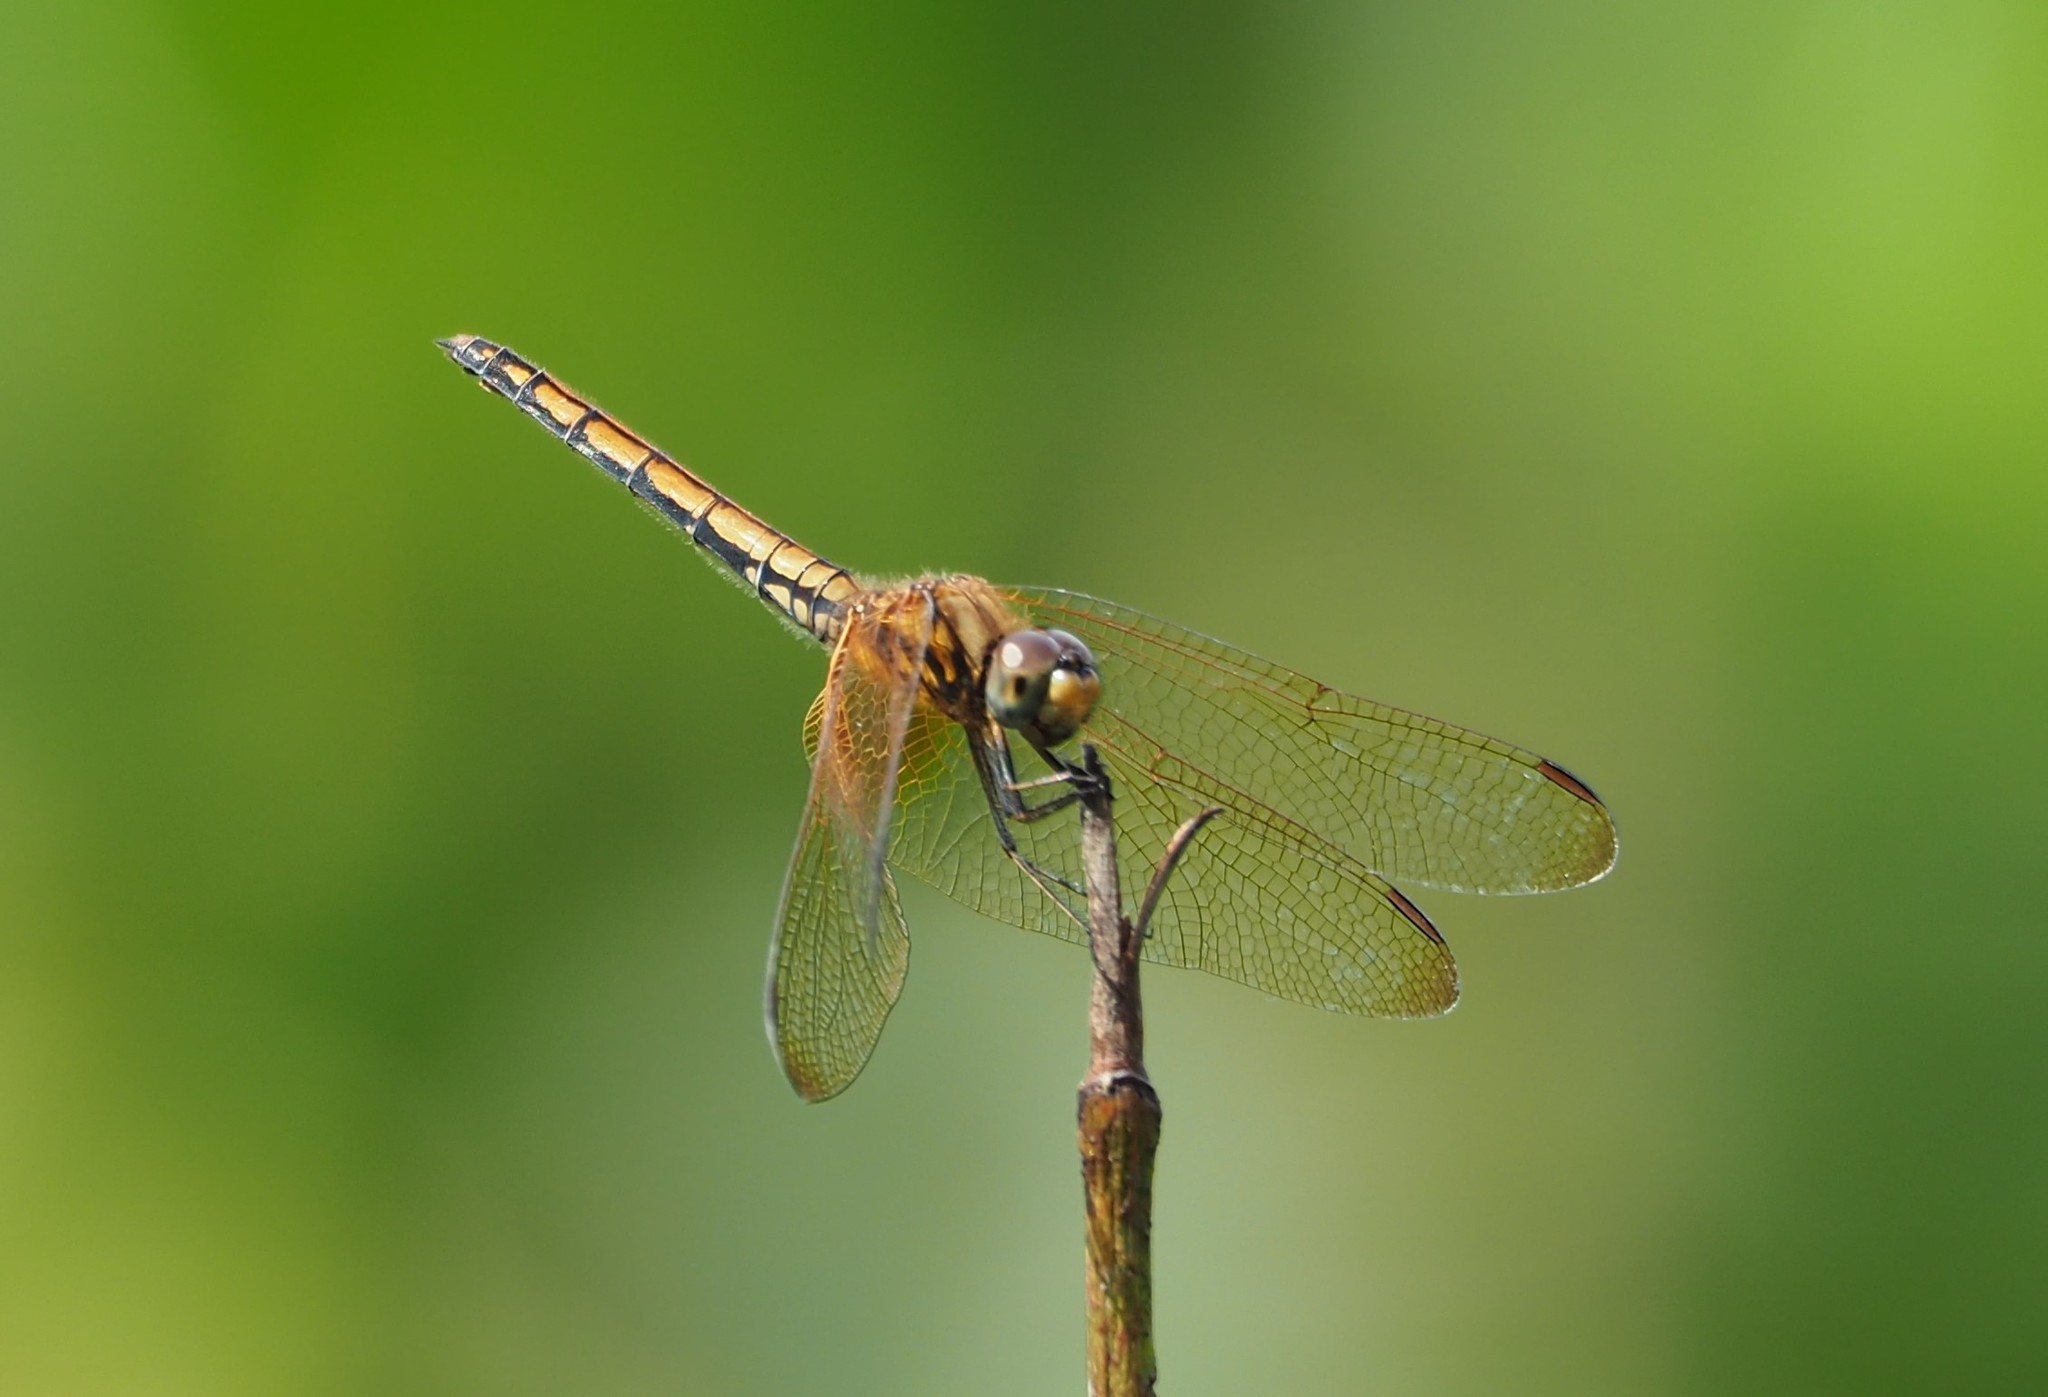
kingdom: Animalia
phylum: Arthropoda
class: Insecta
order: Odonata
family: Libellulidae
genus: Trithemis
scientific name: Trithemis aurora
